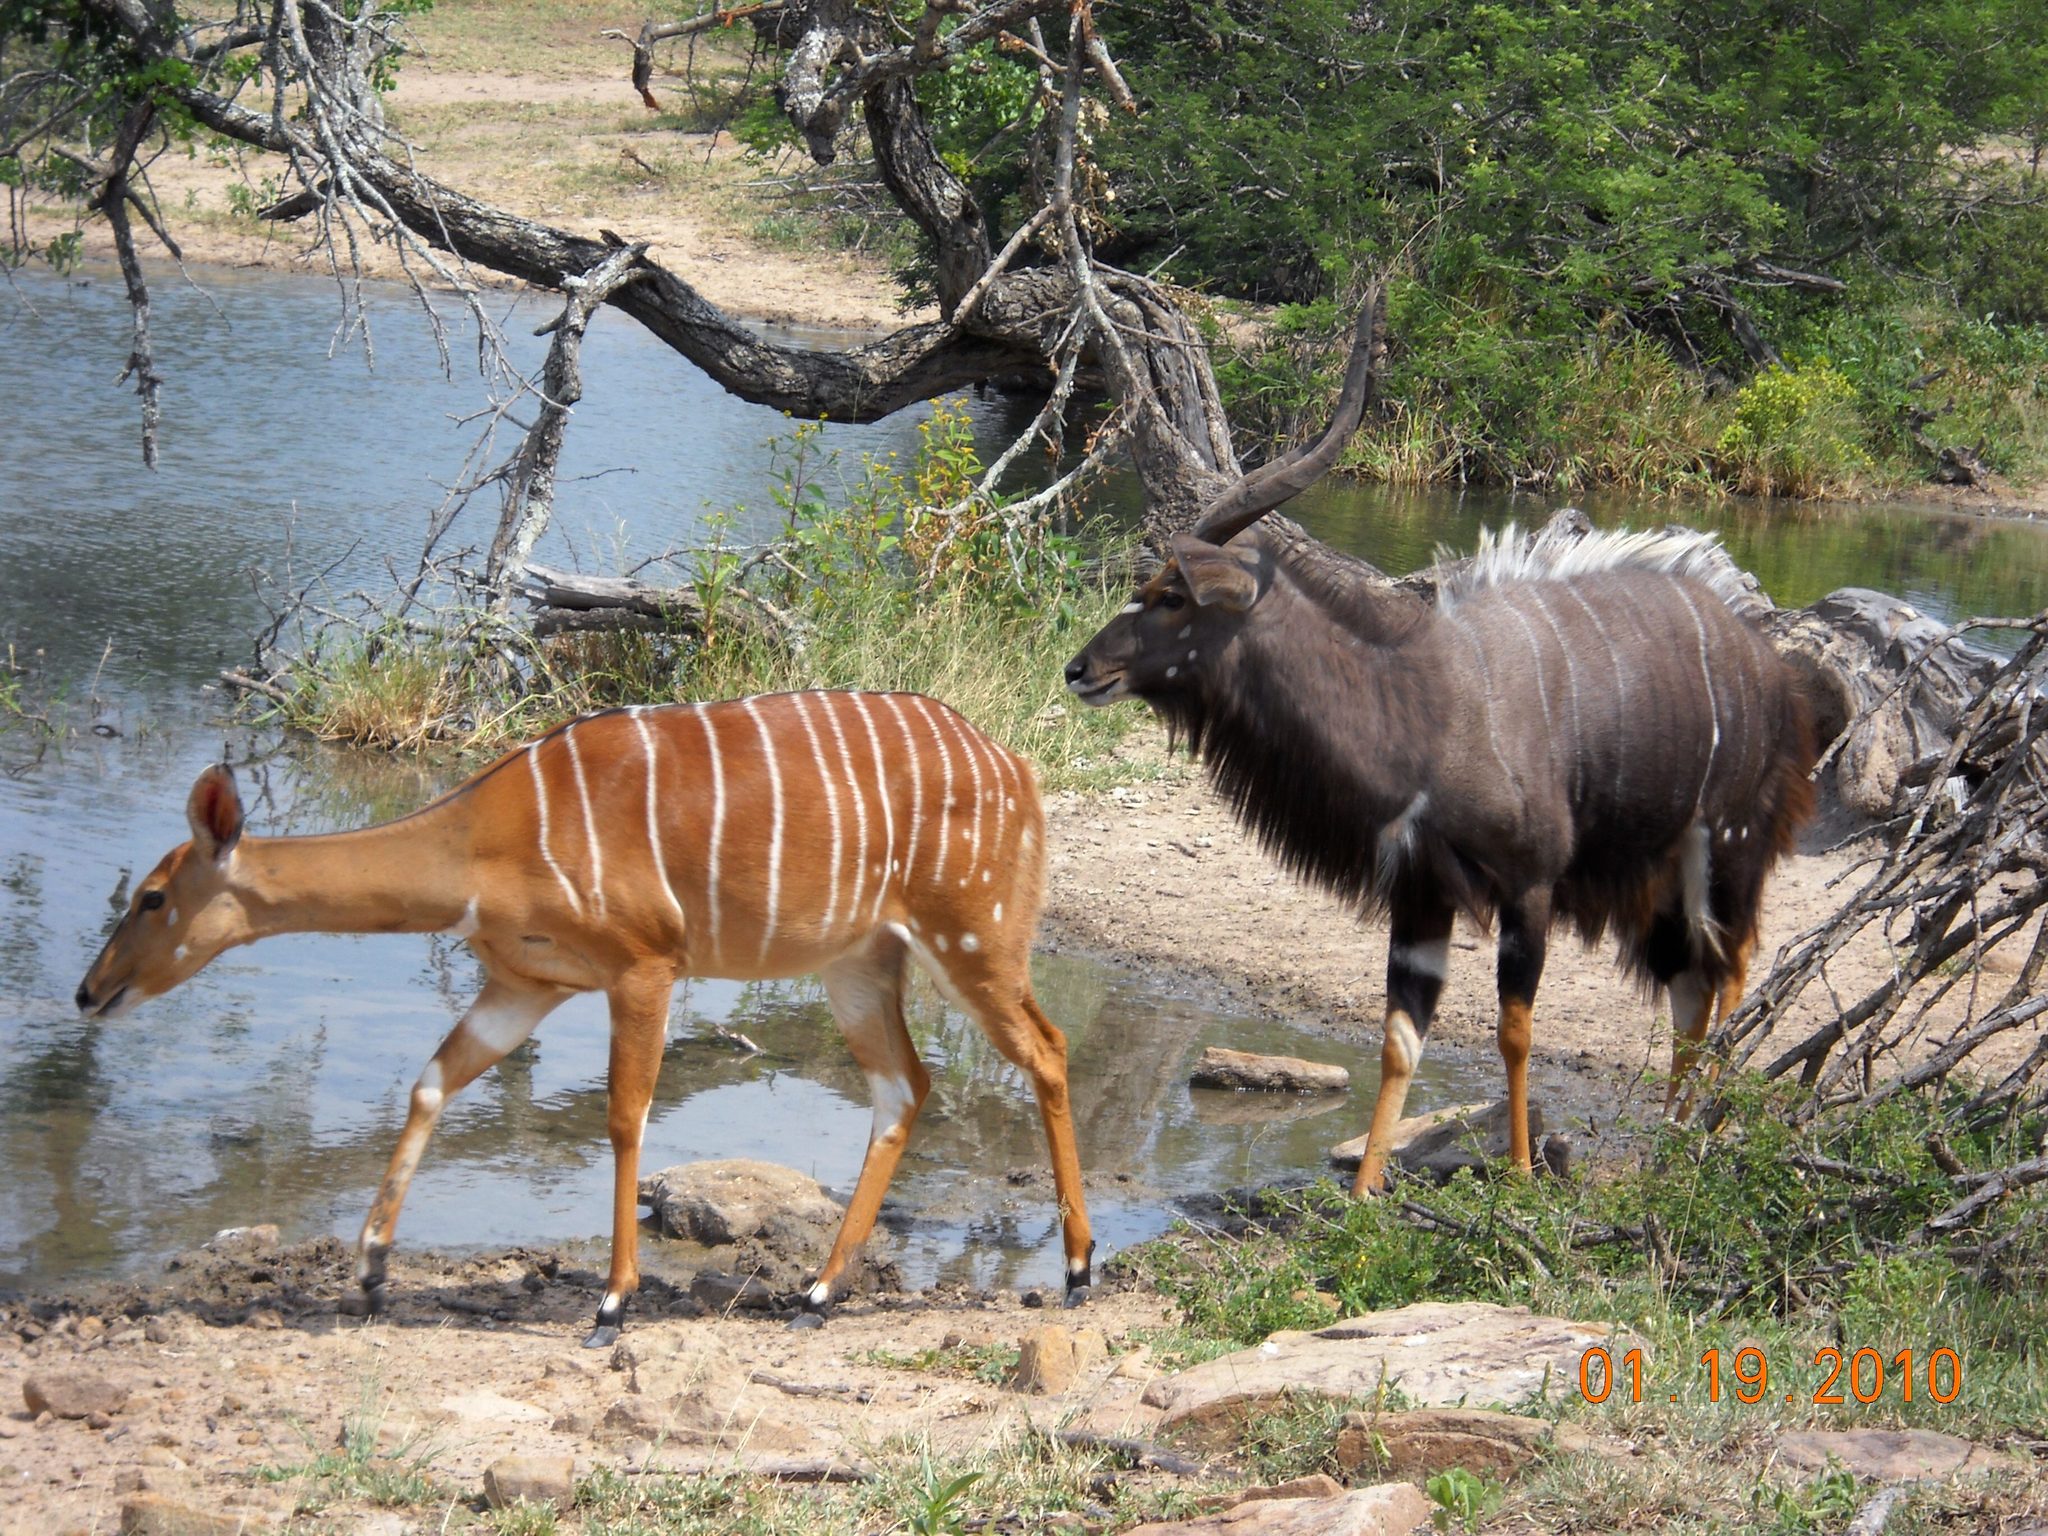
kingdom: Animalia
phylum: Chordata
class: Mammalia
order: Artiodactyla
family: Bovidae
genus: Tragelaphus
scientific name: Tragelaphus angasii
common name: Nyala
